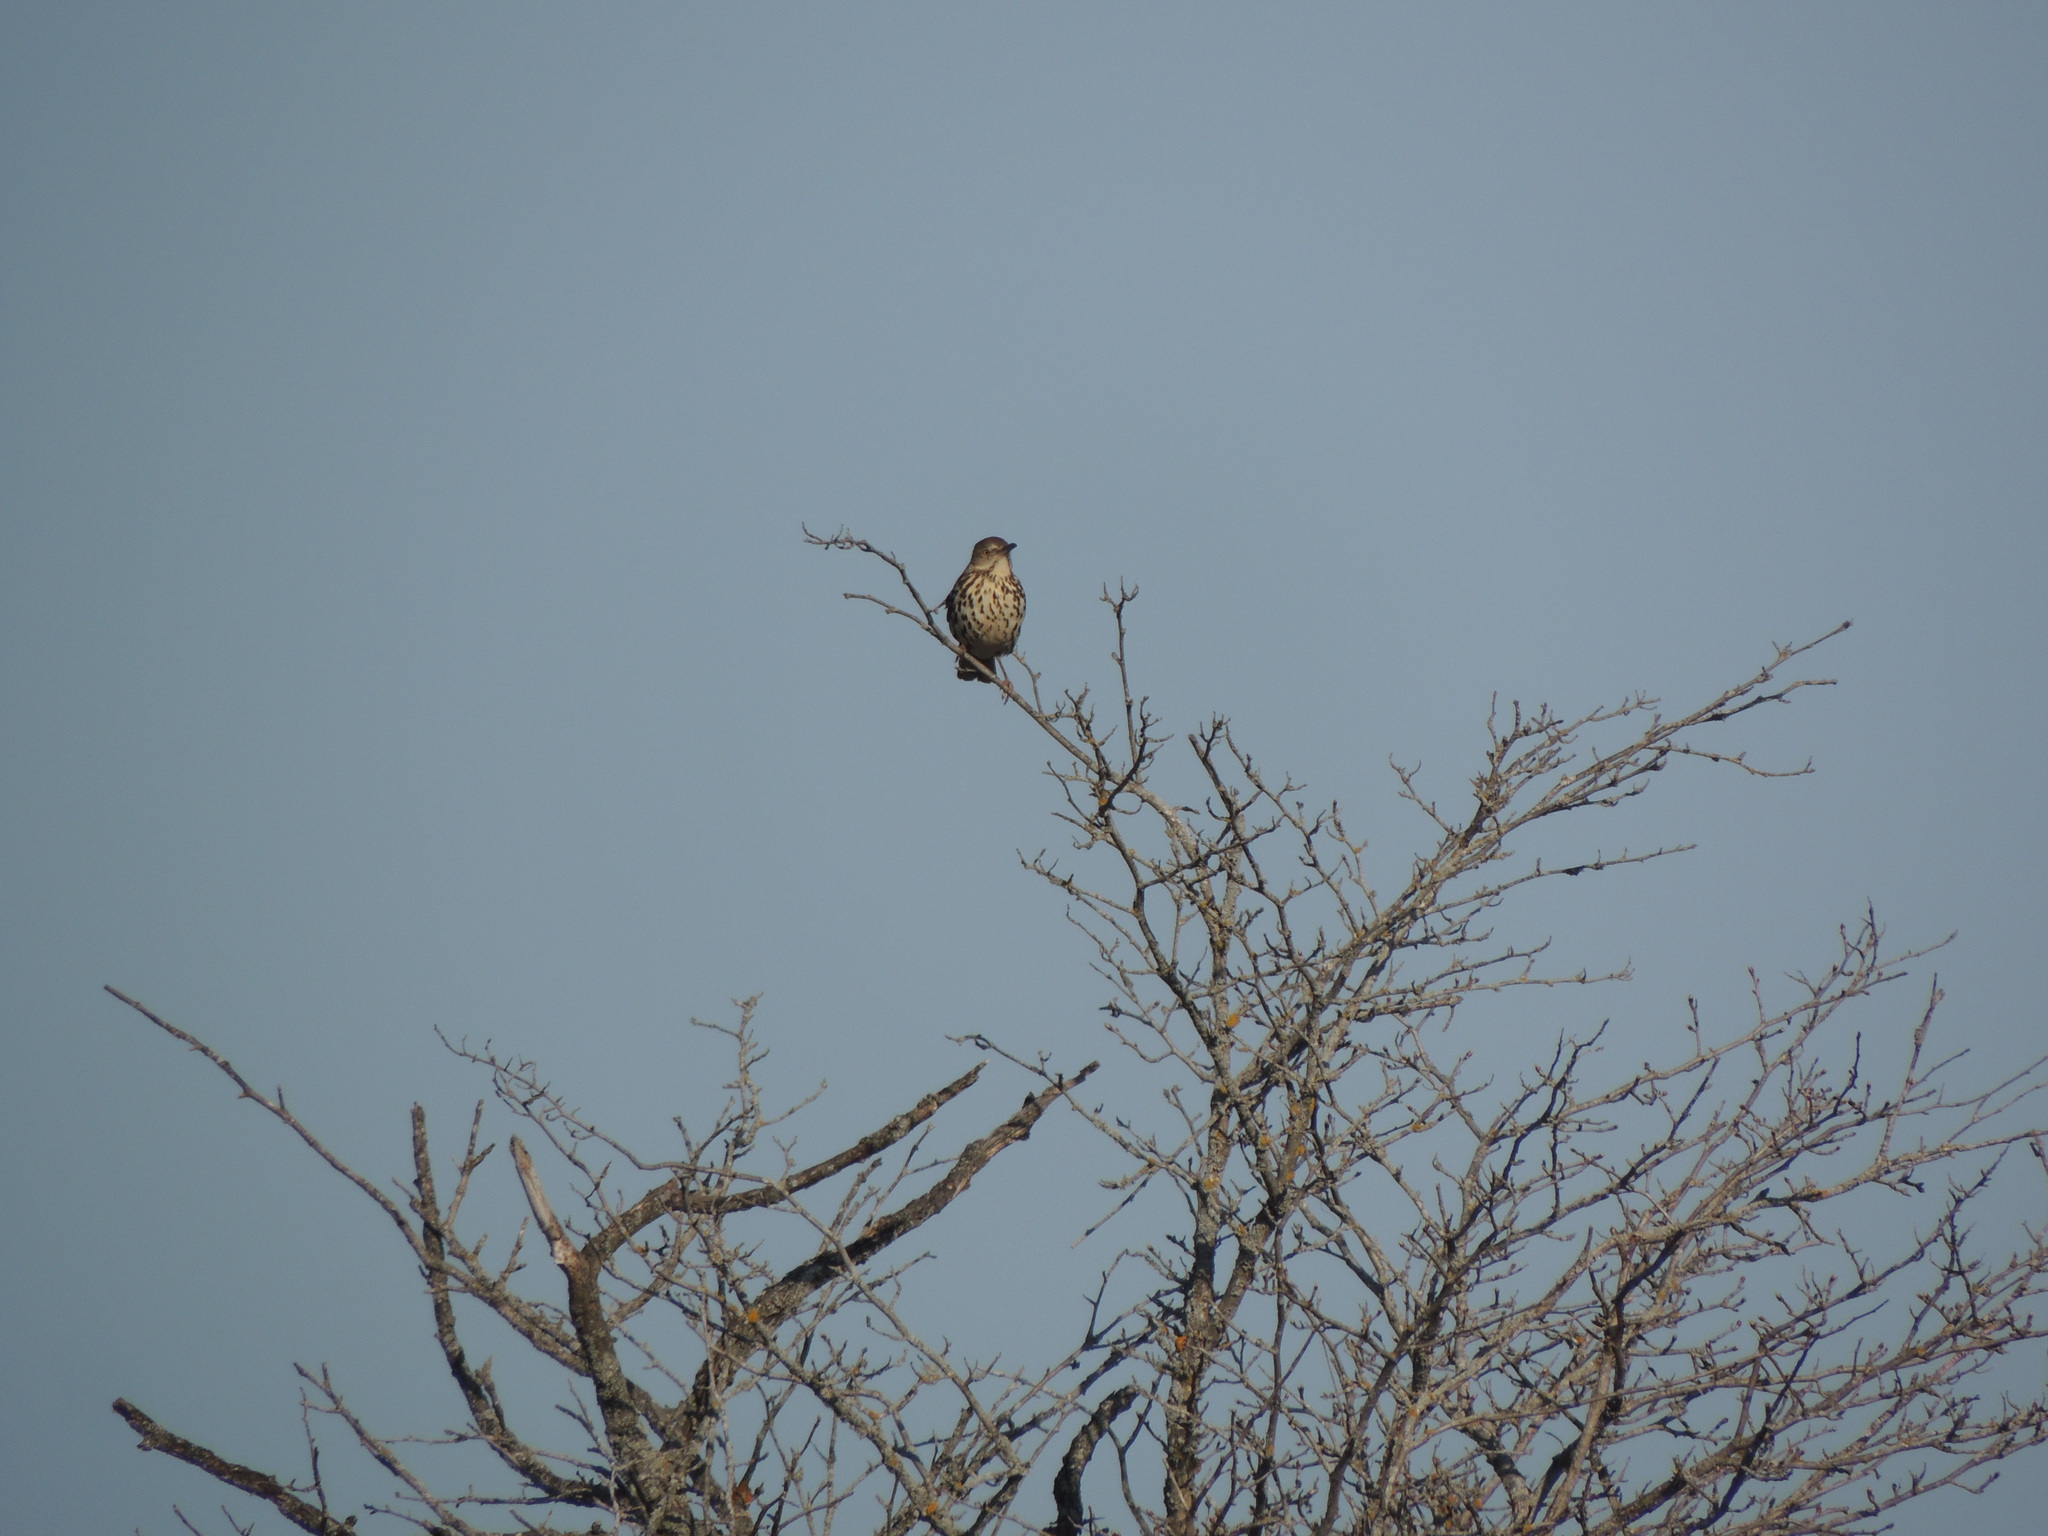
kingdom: Animalia
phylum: Chordata
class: Aves
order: Passeriformes
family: Mimidae
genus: Toxostoma
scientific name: Toxostoma rufum
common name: Brown thrasher
